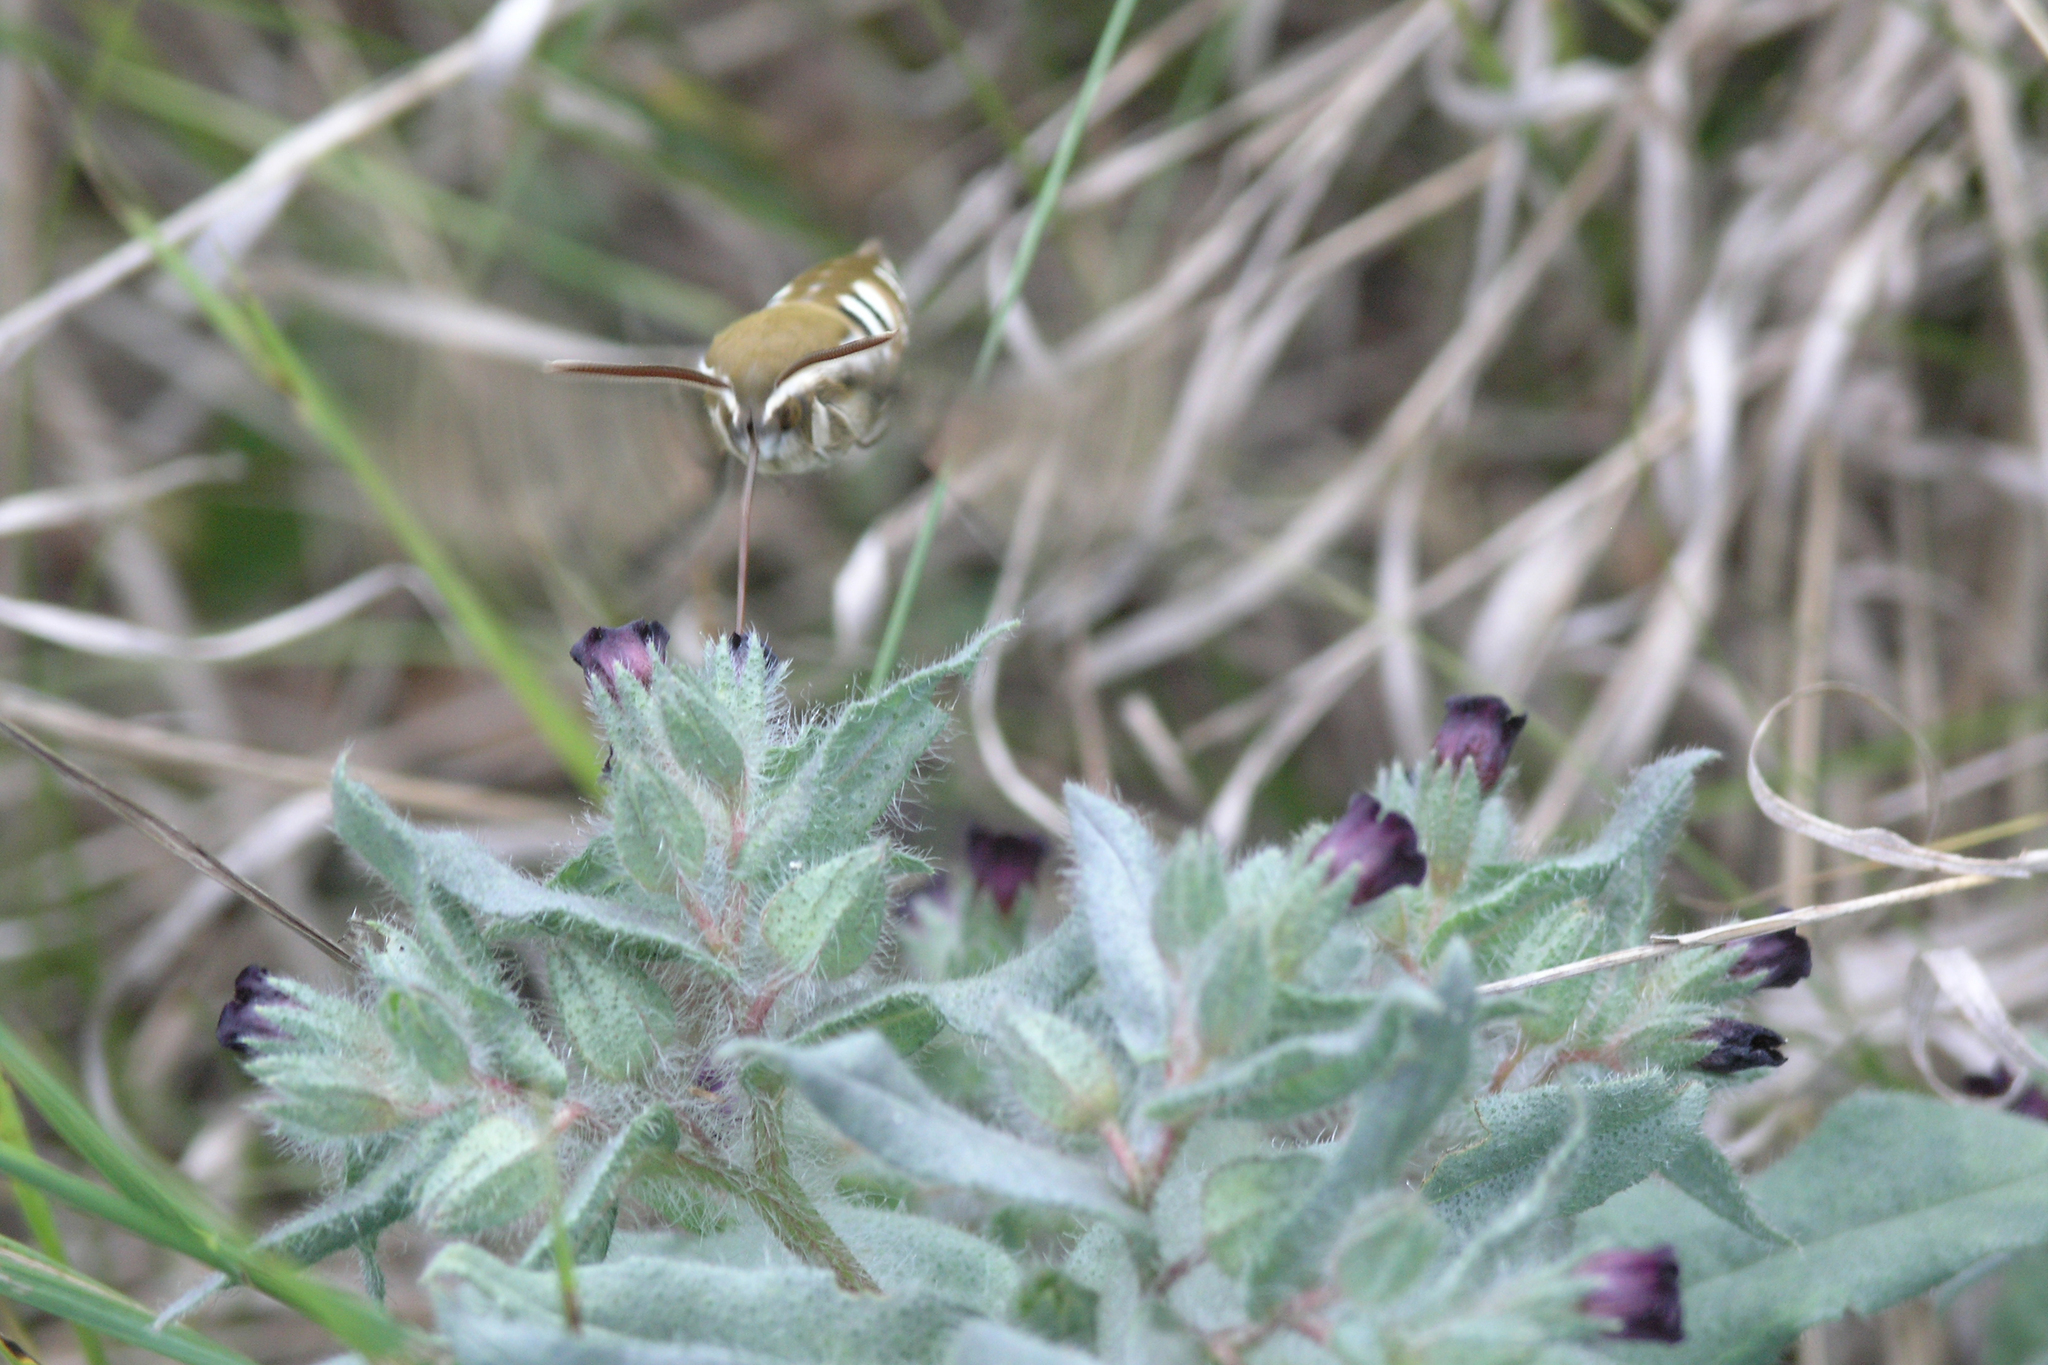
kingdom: Plantae
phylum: Tracheophyta
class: Magnoliopsida
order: Boraginales
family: Boraginaceae
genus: Nonea
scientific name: Nonea pulla
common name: Brown nonea
